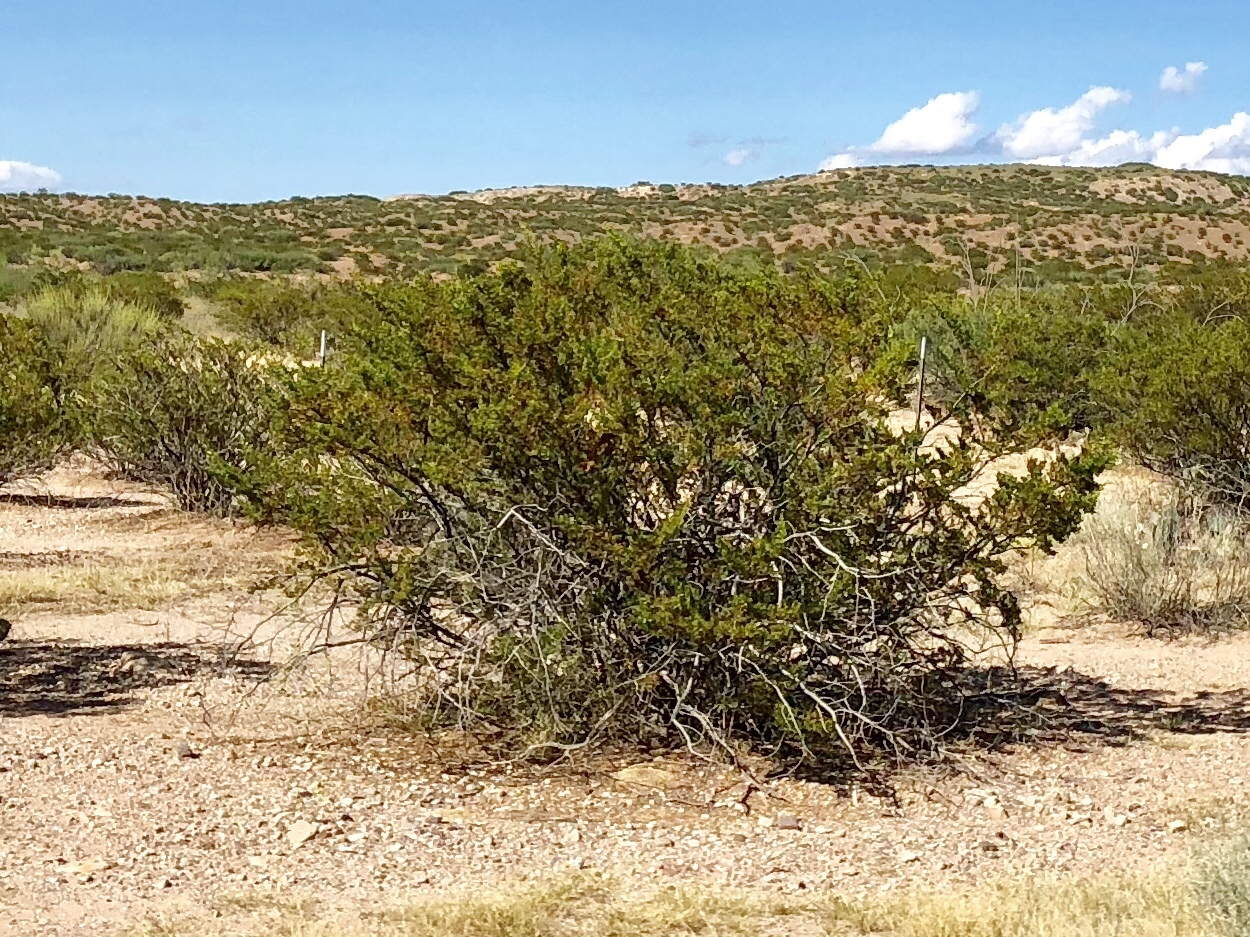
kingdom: Plantae
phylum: Tracheophyta
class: Magnoliopsida
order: Zygophyllales
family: Zygophyllaceae
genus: Larrea
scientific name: Larrea tridentata
